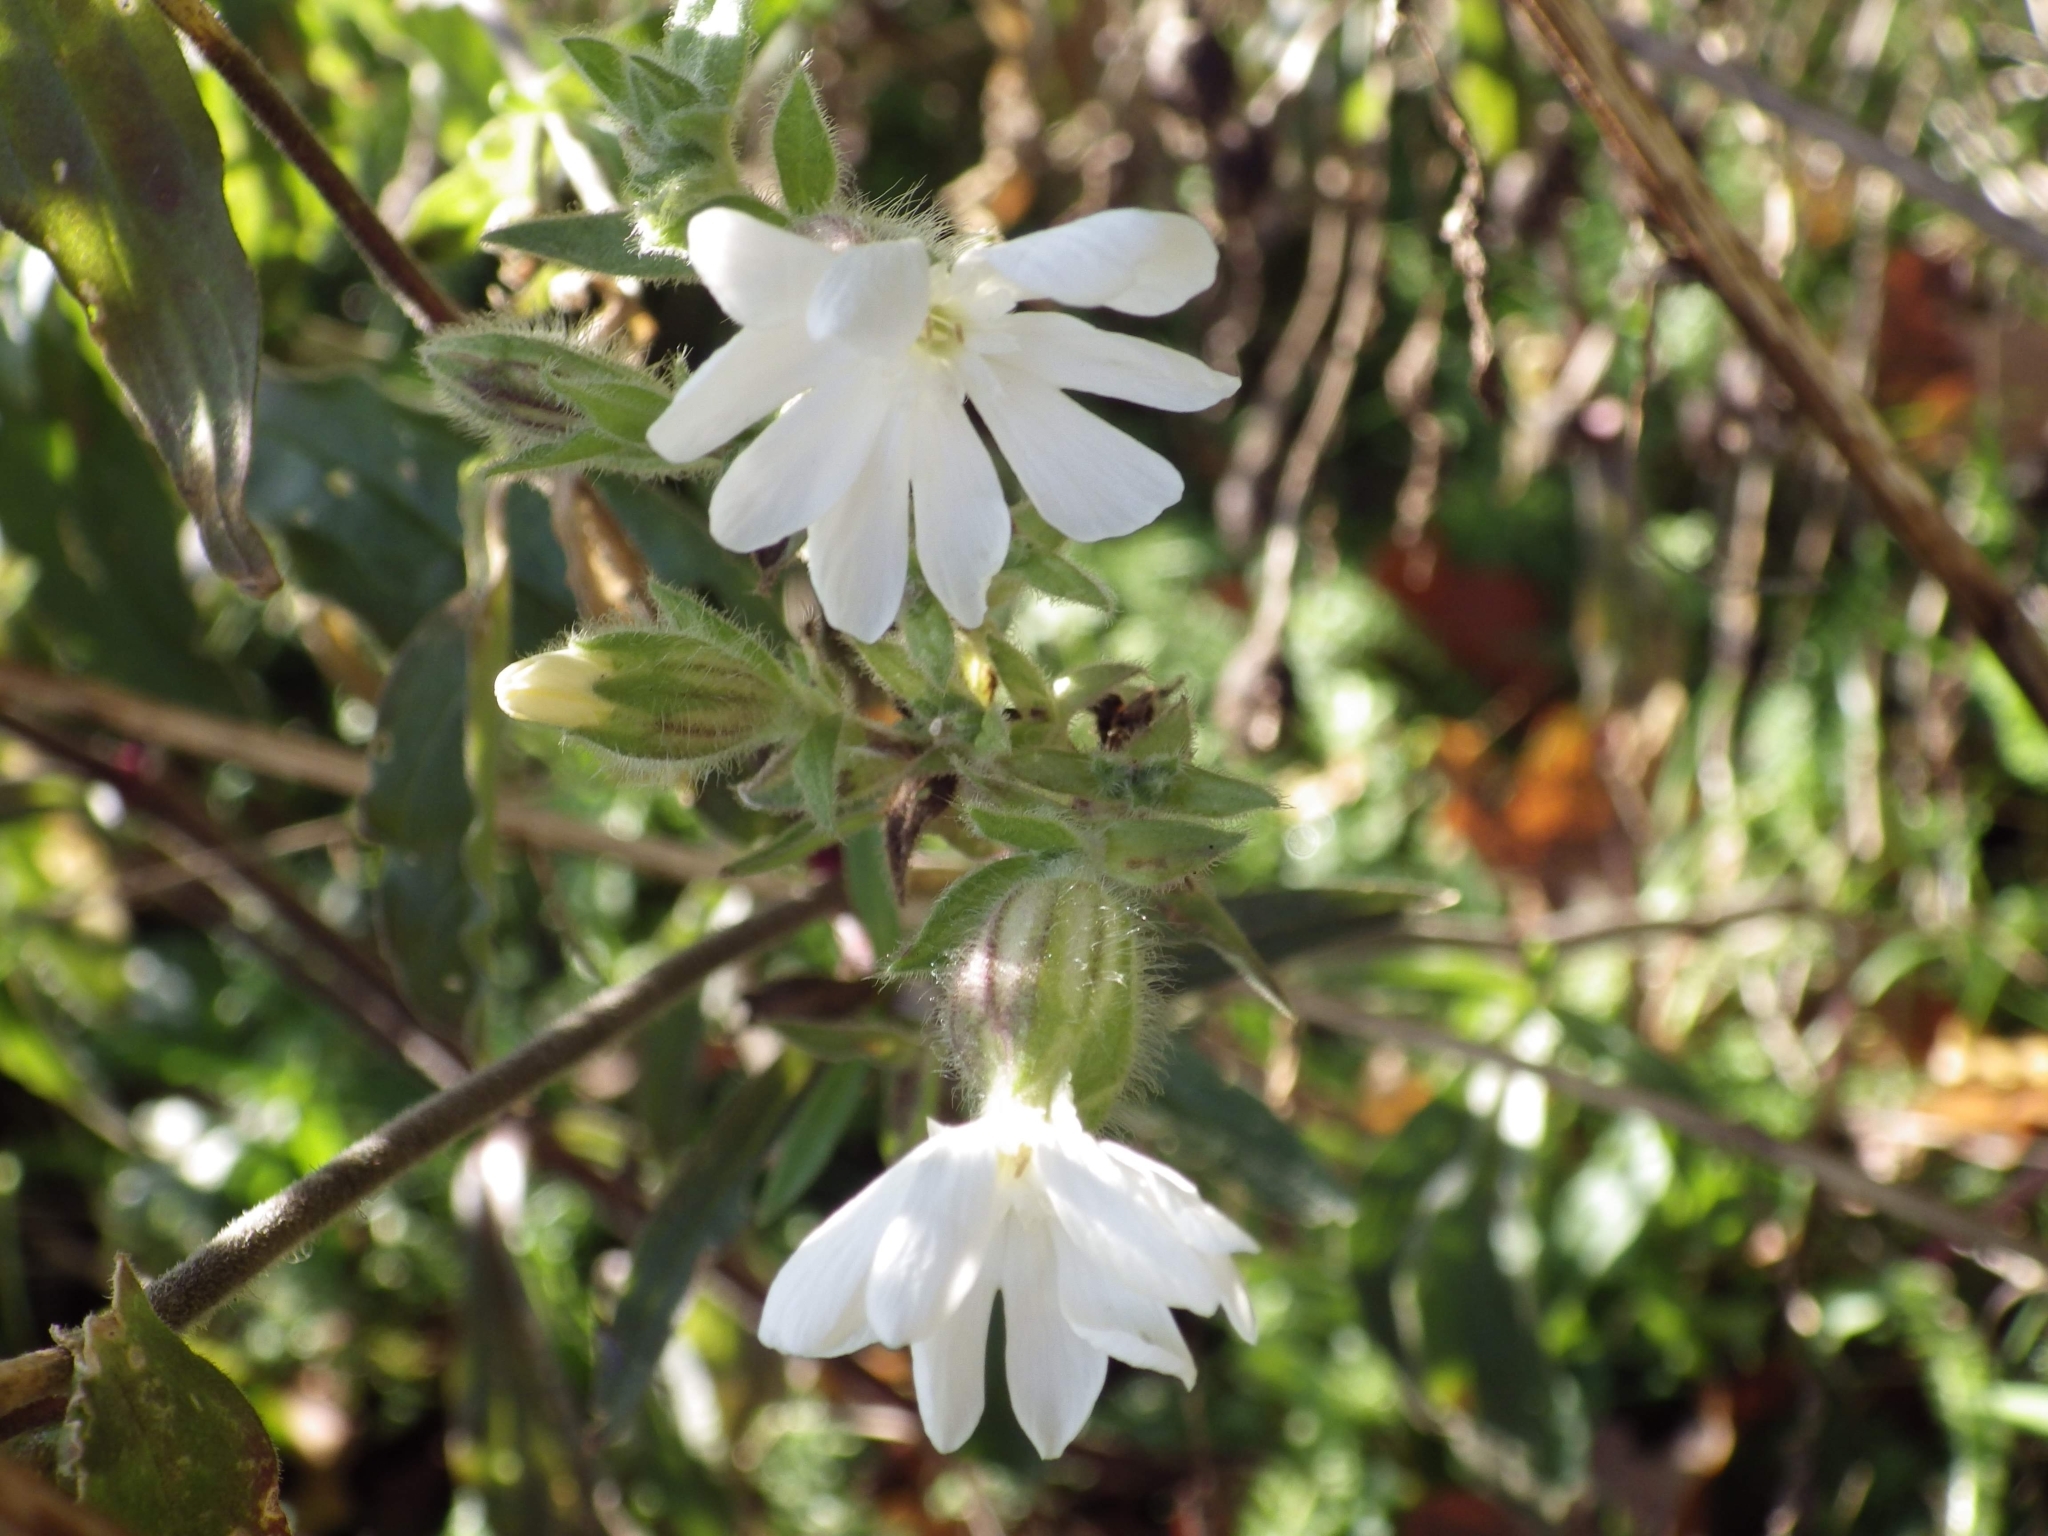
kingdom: Plantae
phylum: Tracheophyta
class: Magnoliopsida
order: Caryophyllales
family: Caryophyllaceae
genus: Silene
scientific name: Silene latifolia
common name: White campion
